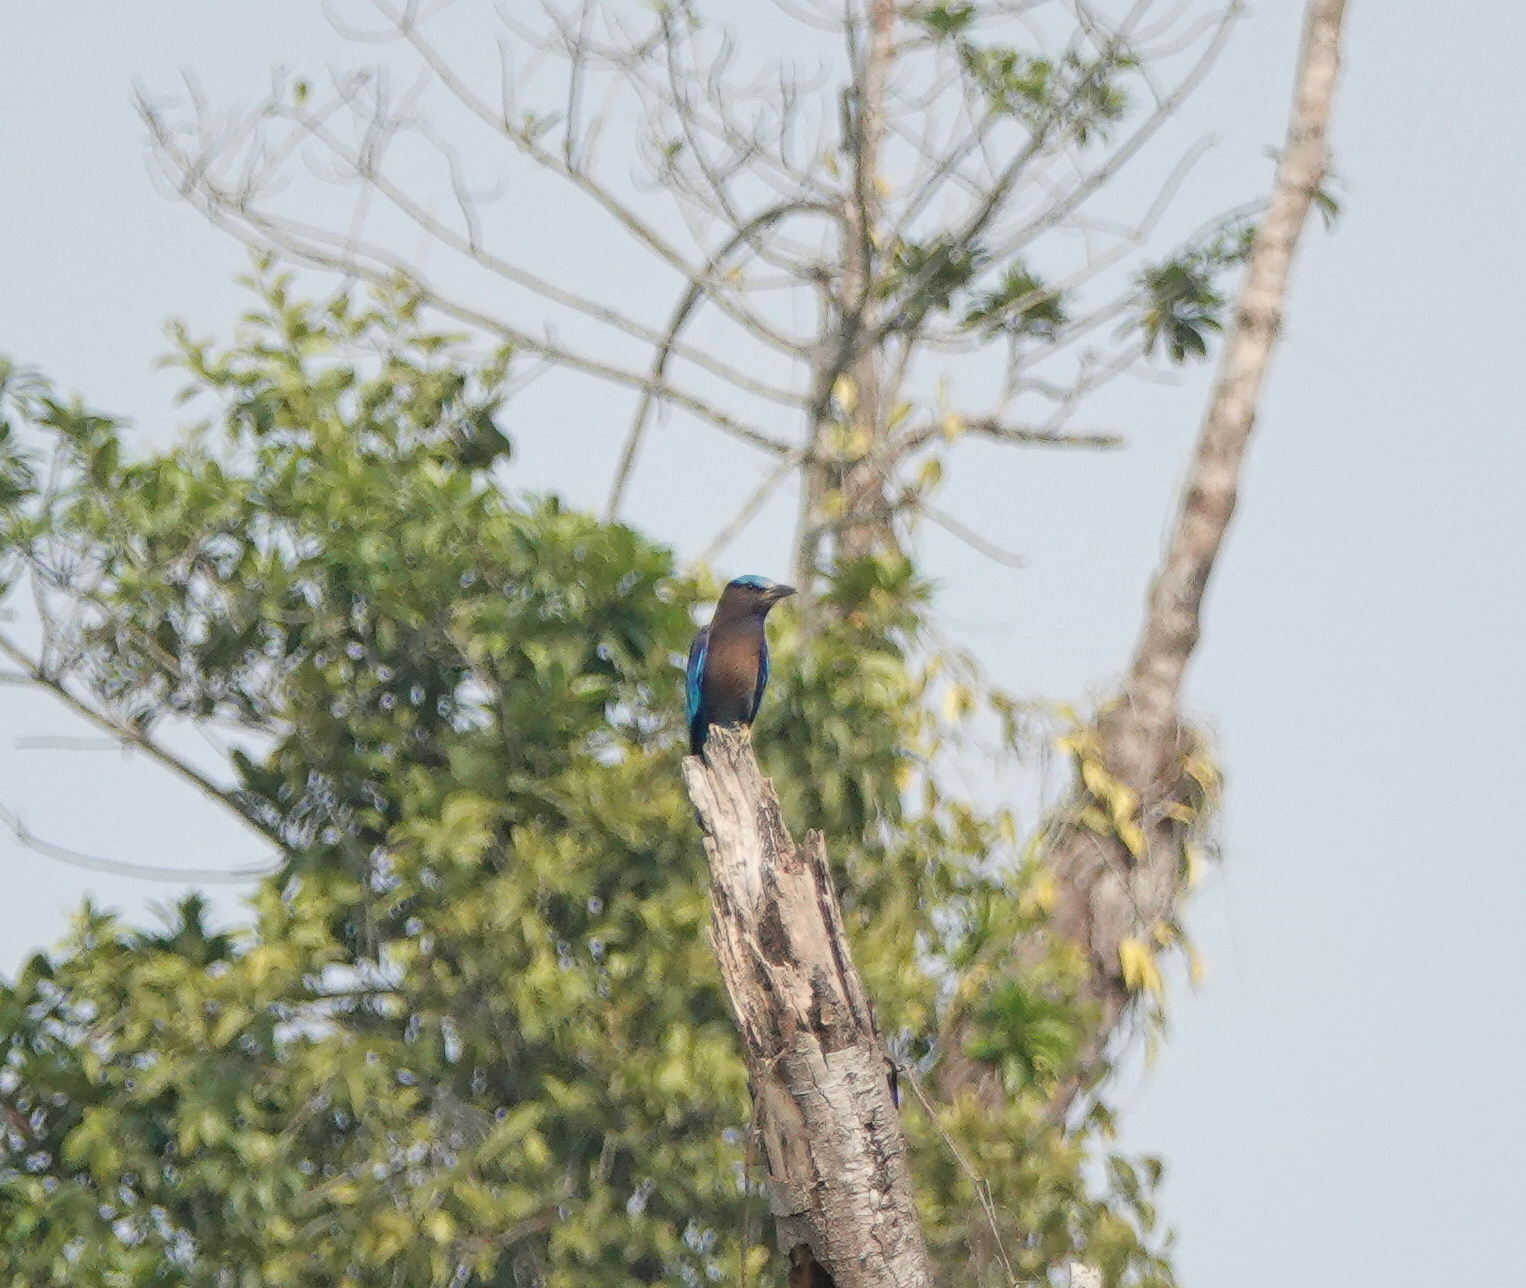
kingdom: Animalia
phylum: Chordata
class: Aves
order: Coraciiformes
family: Coraciidae
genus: Coracias
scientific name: Coracias affinis
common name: Indochinese roller
